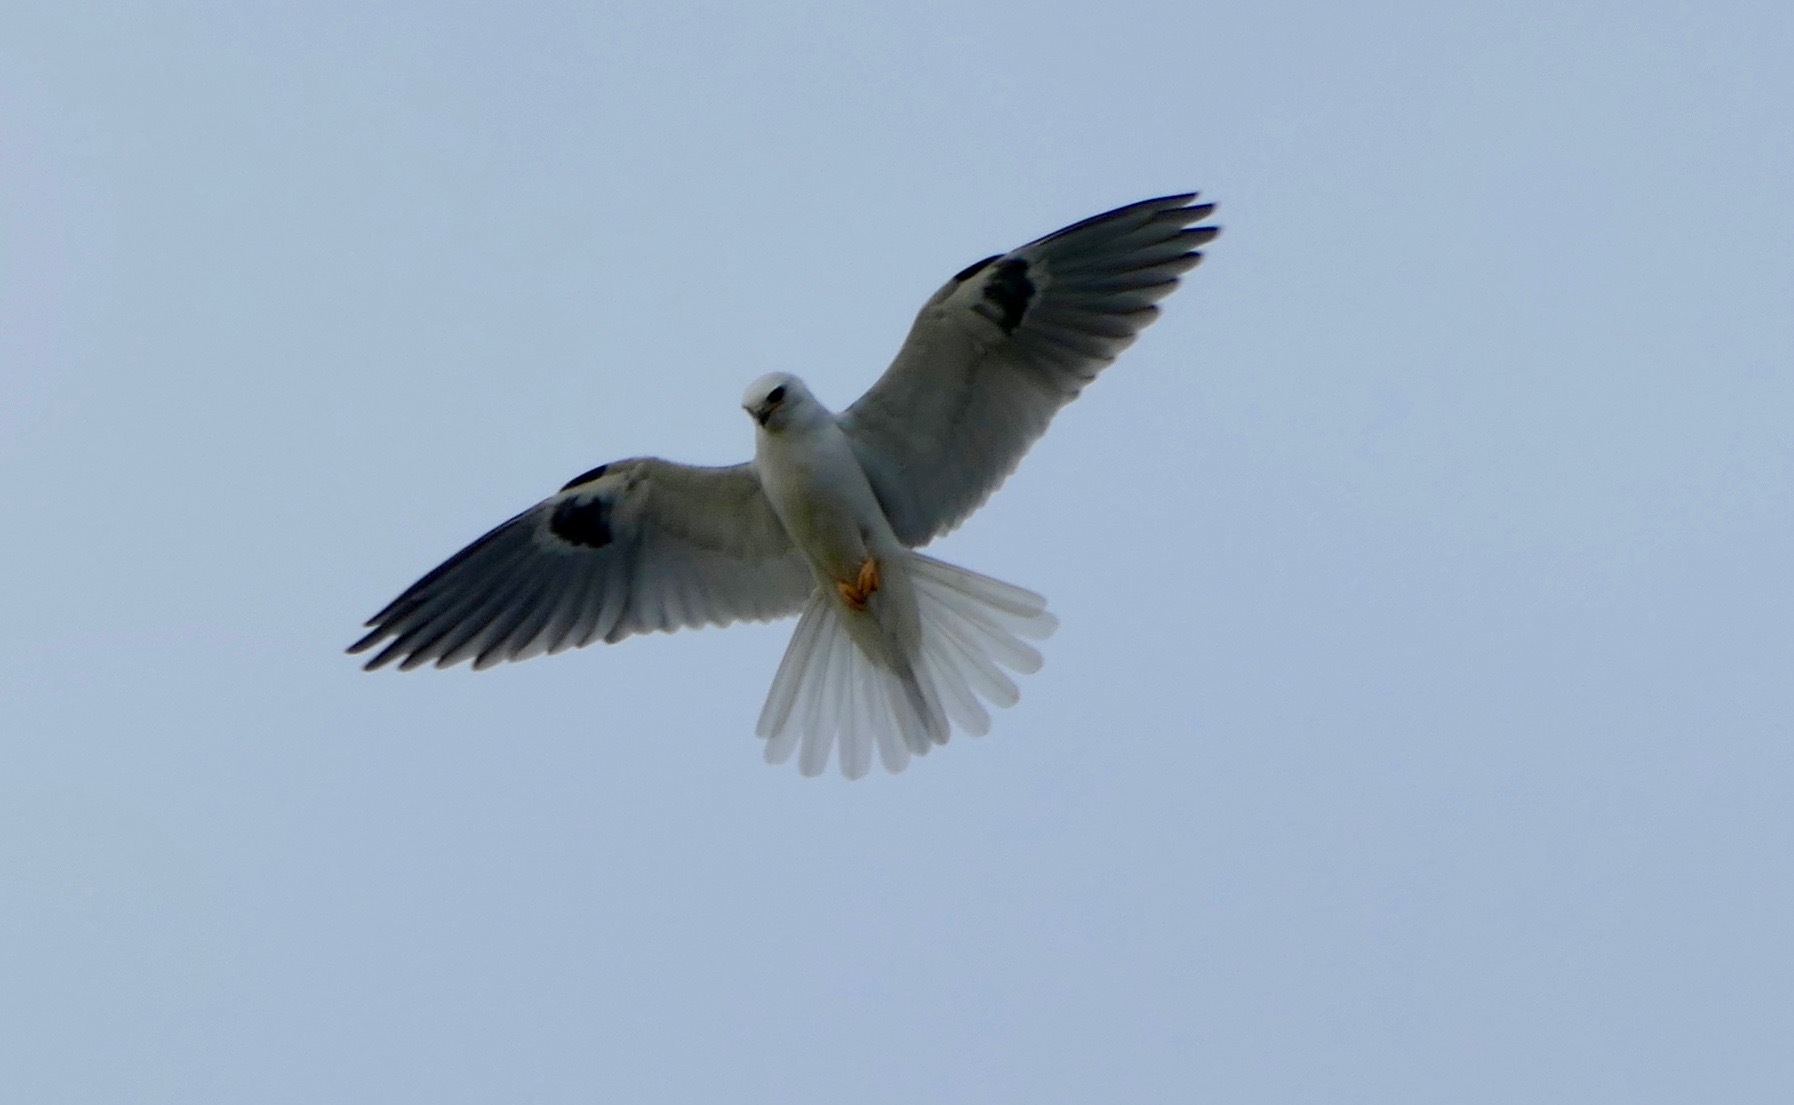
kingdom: Animalia
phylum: Chordata
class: Aves
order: Accipitriformes
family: Accipitridae
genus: Elanus
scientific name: Elanus leucurus
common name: White-tailed kite
